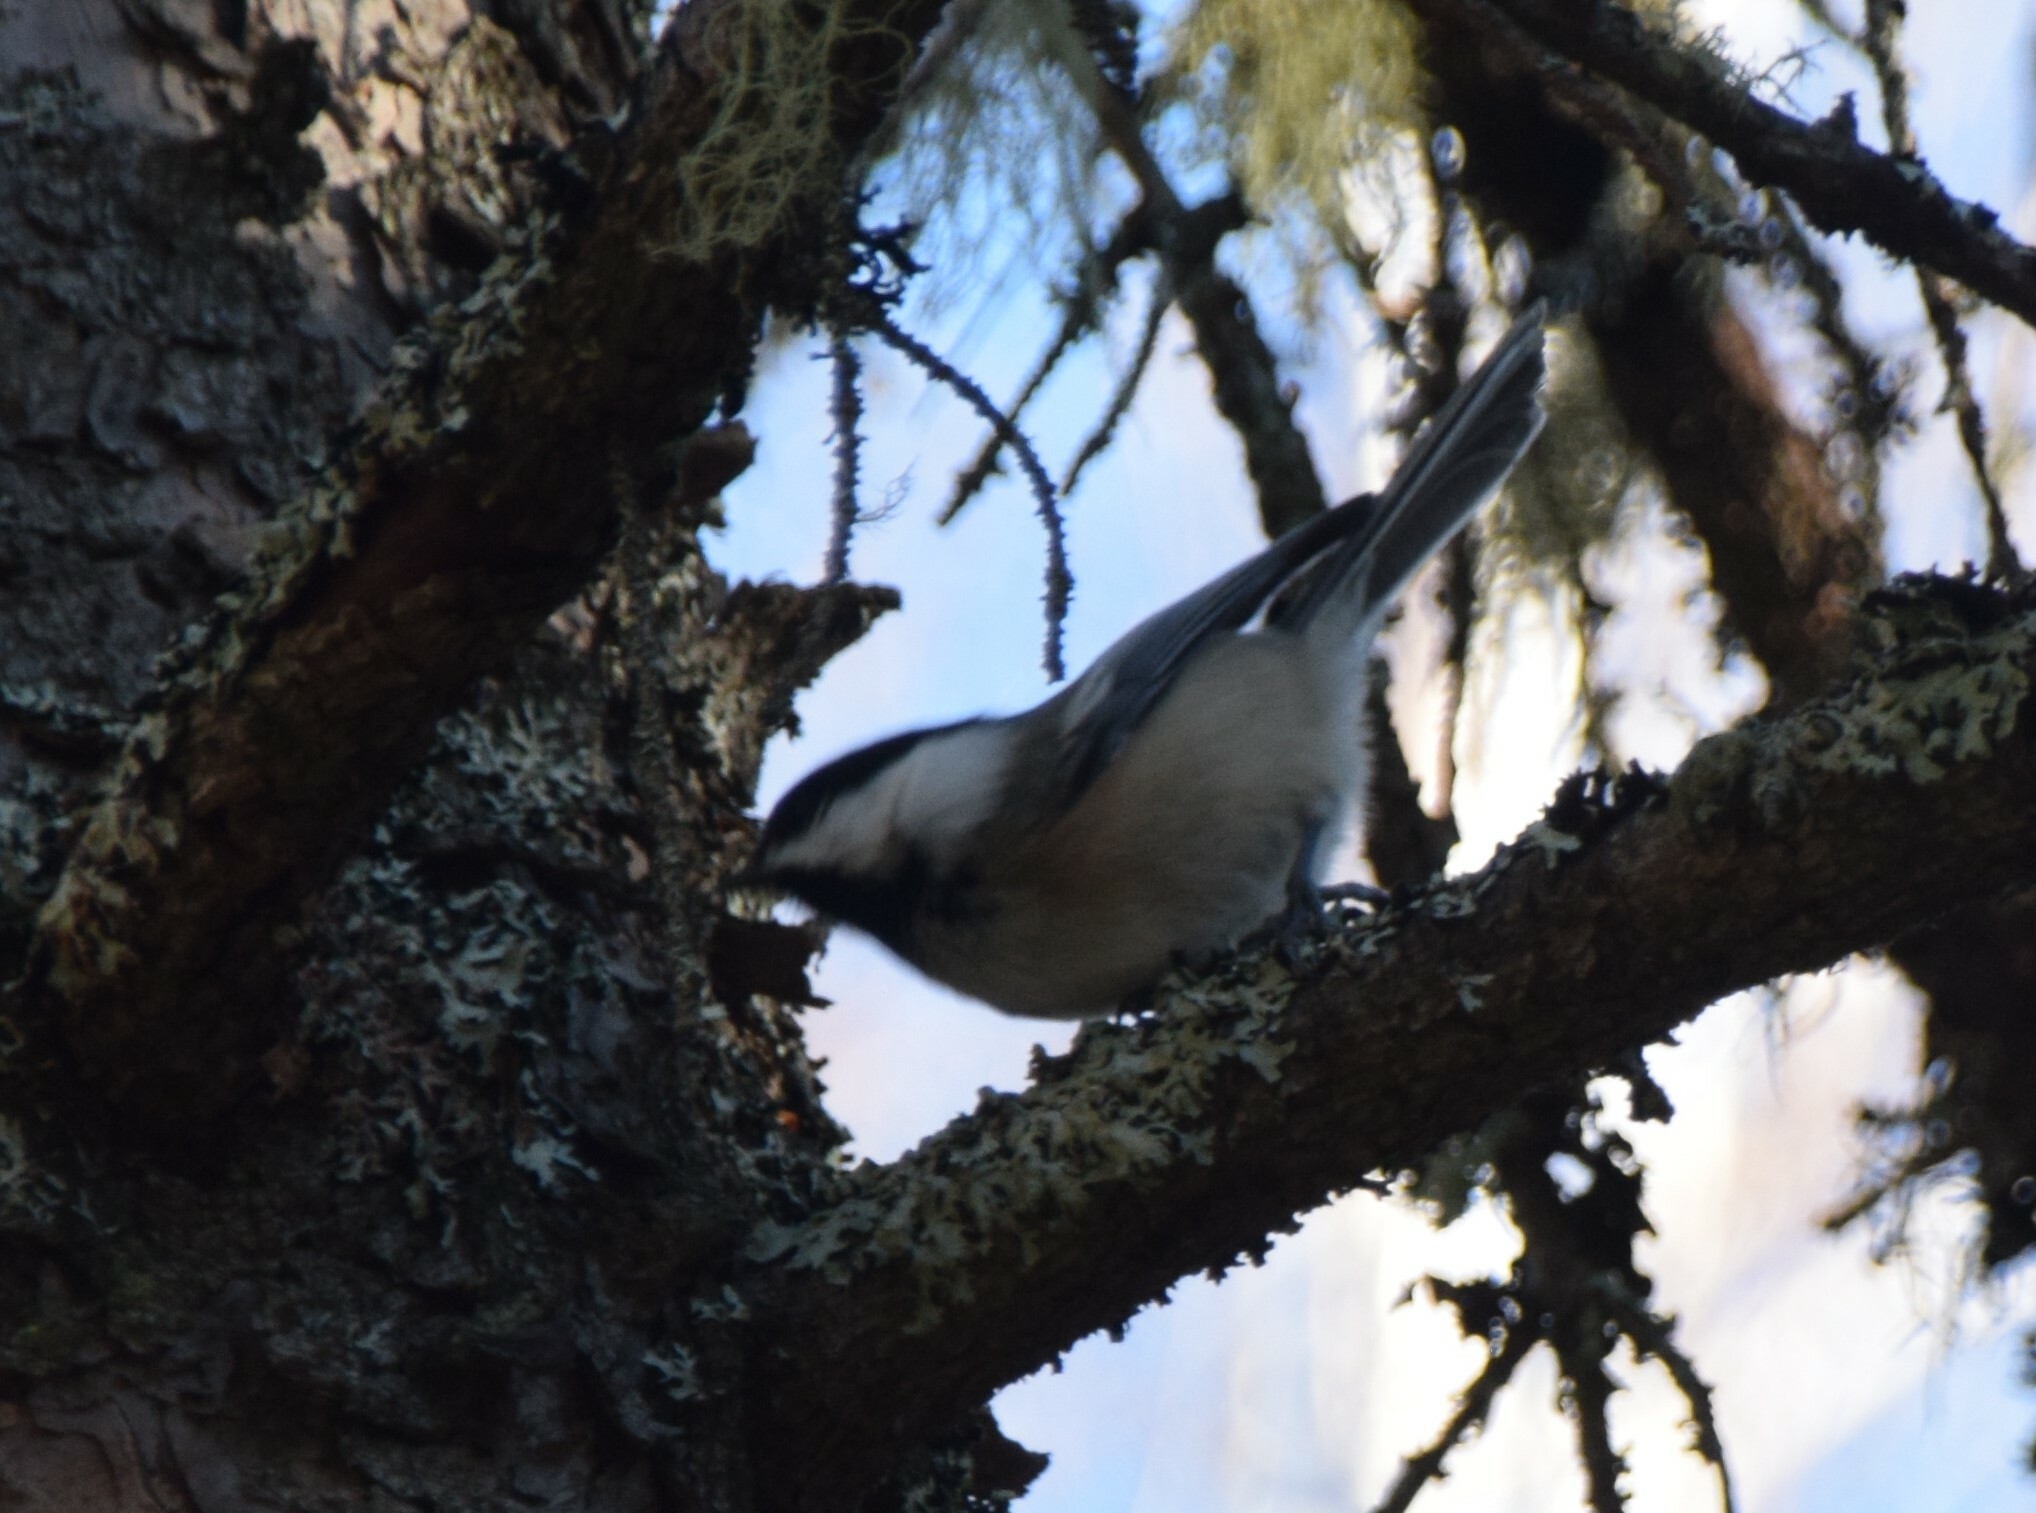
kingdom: Animalia
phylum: Chordata
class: Aves
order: Passeriformes
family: Paridae
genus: Poecile
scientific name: Poecile atricapillus
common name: Black-capped chickadee
